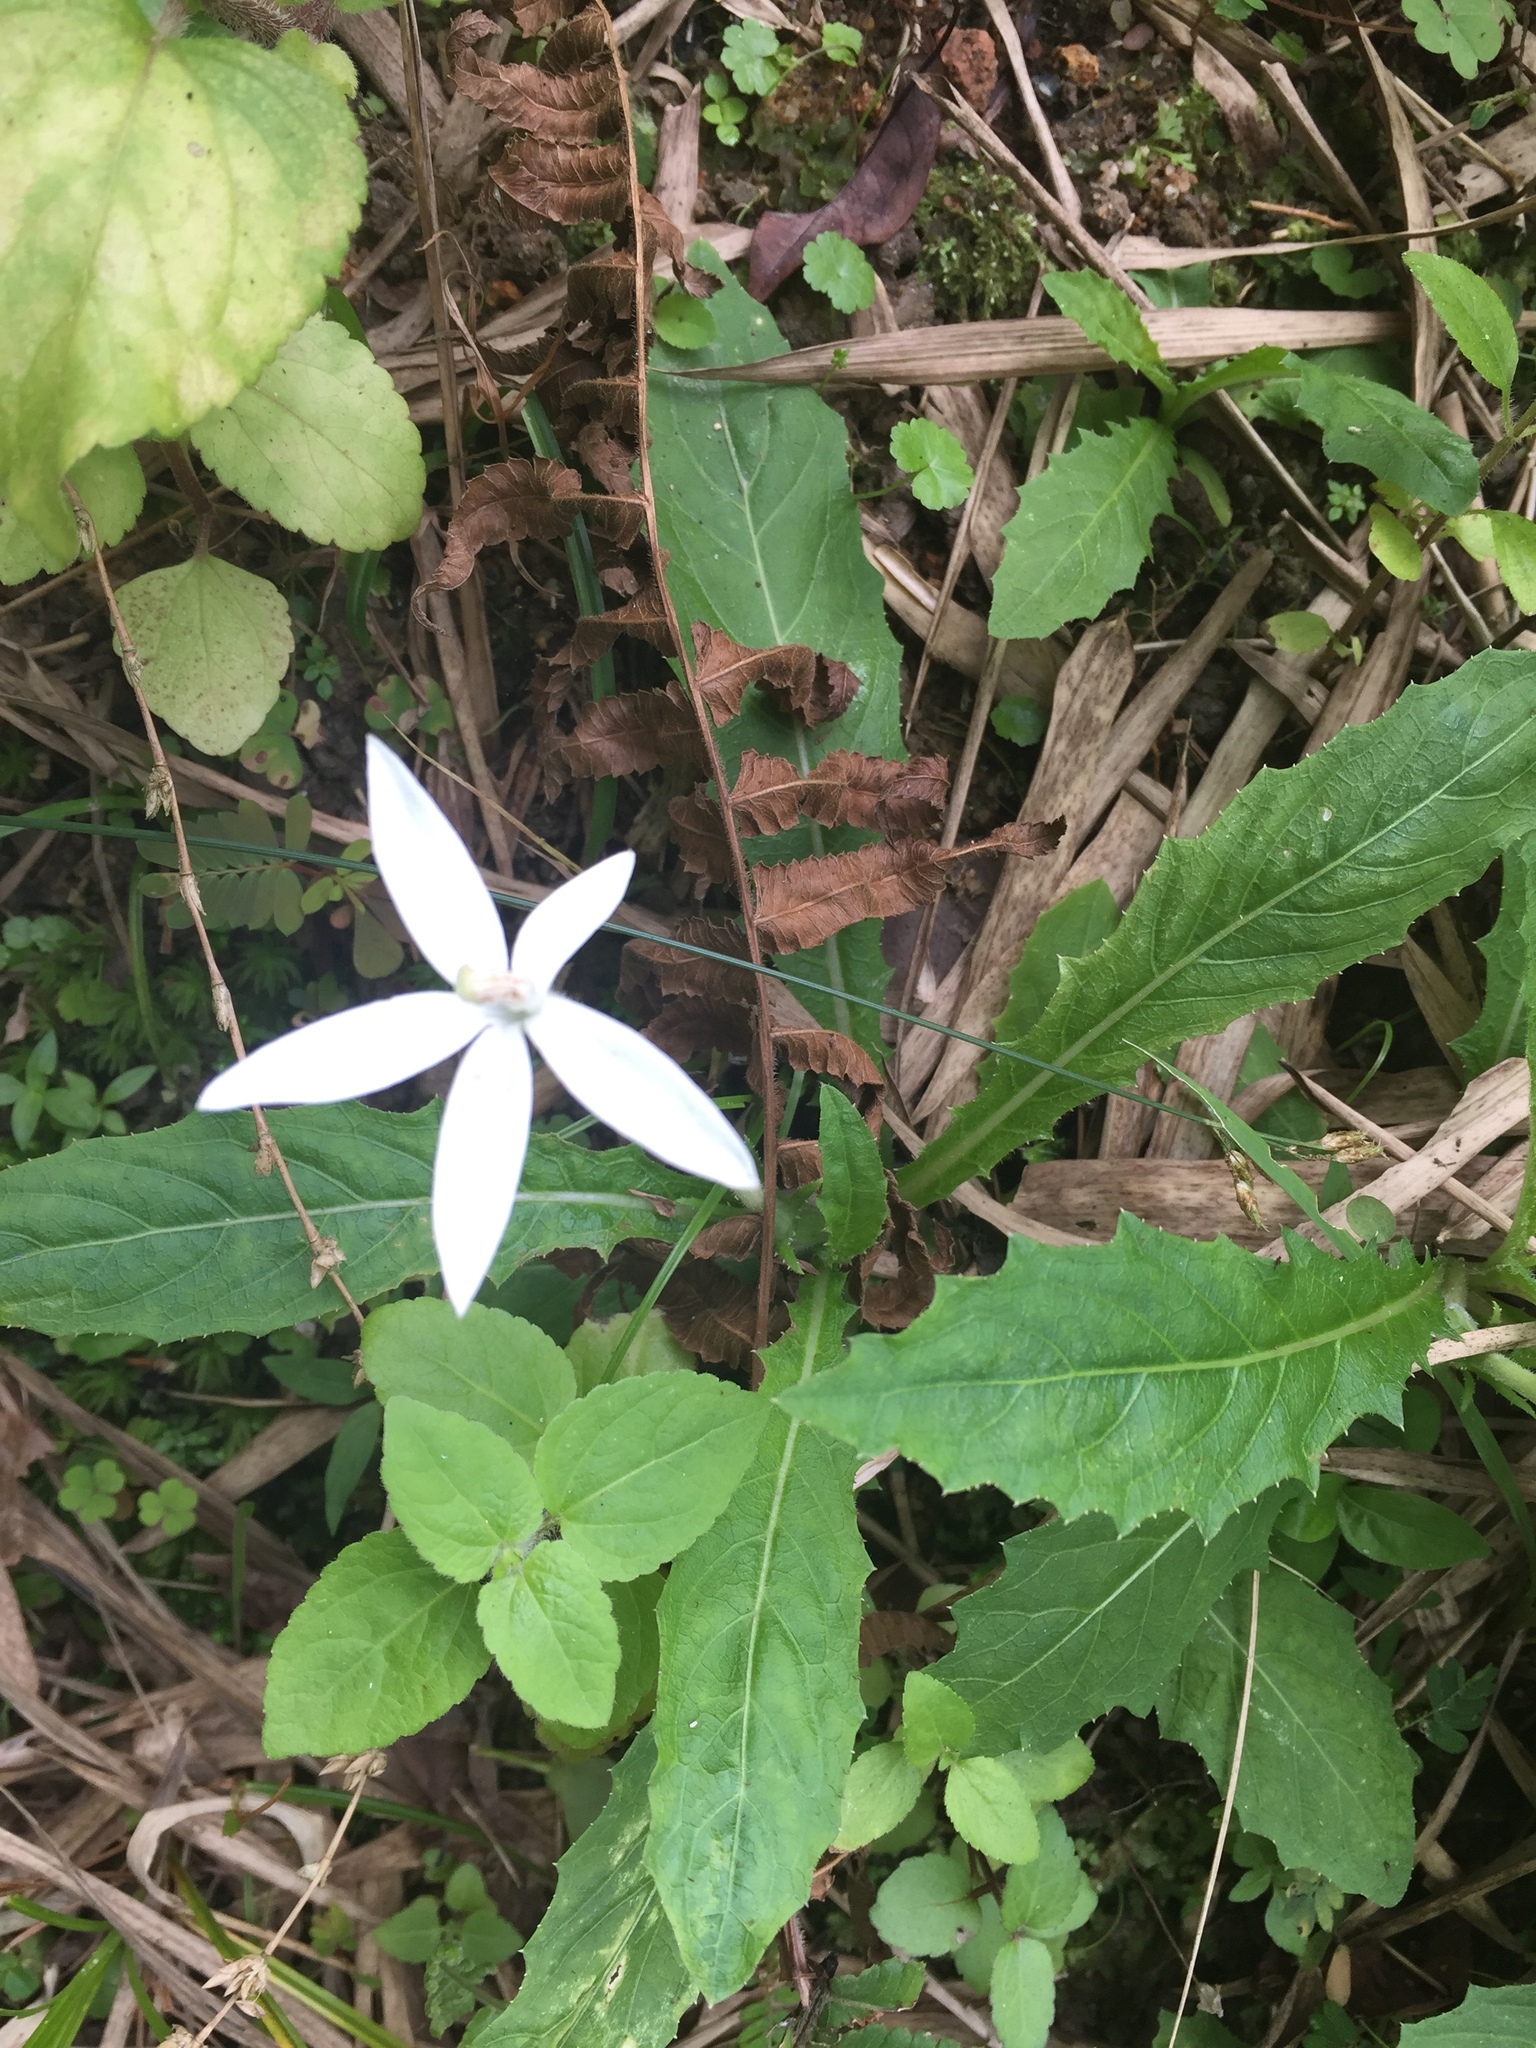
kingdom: Plantae
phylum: Tracheophyta
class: Magnoliopsida
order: Asterales
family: Campanulaceae
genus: Hippobroma
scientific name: Hippobroma longiflora
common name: Madamfate
